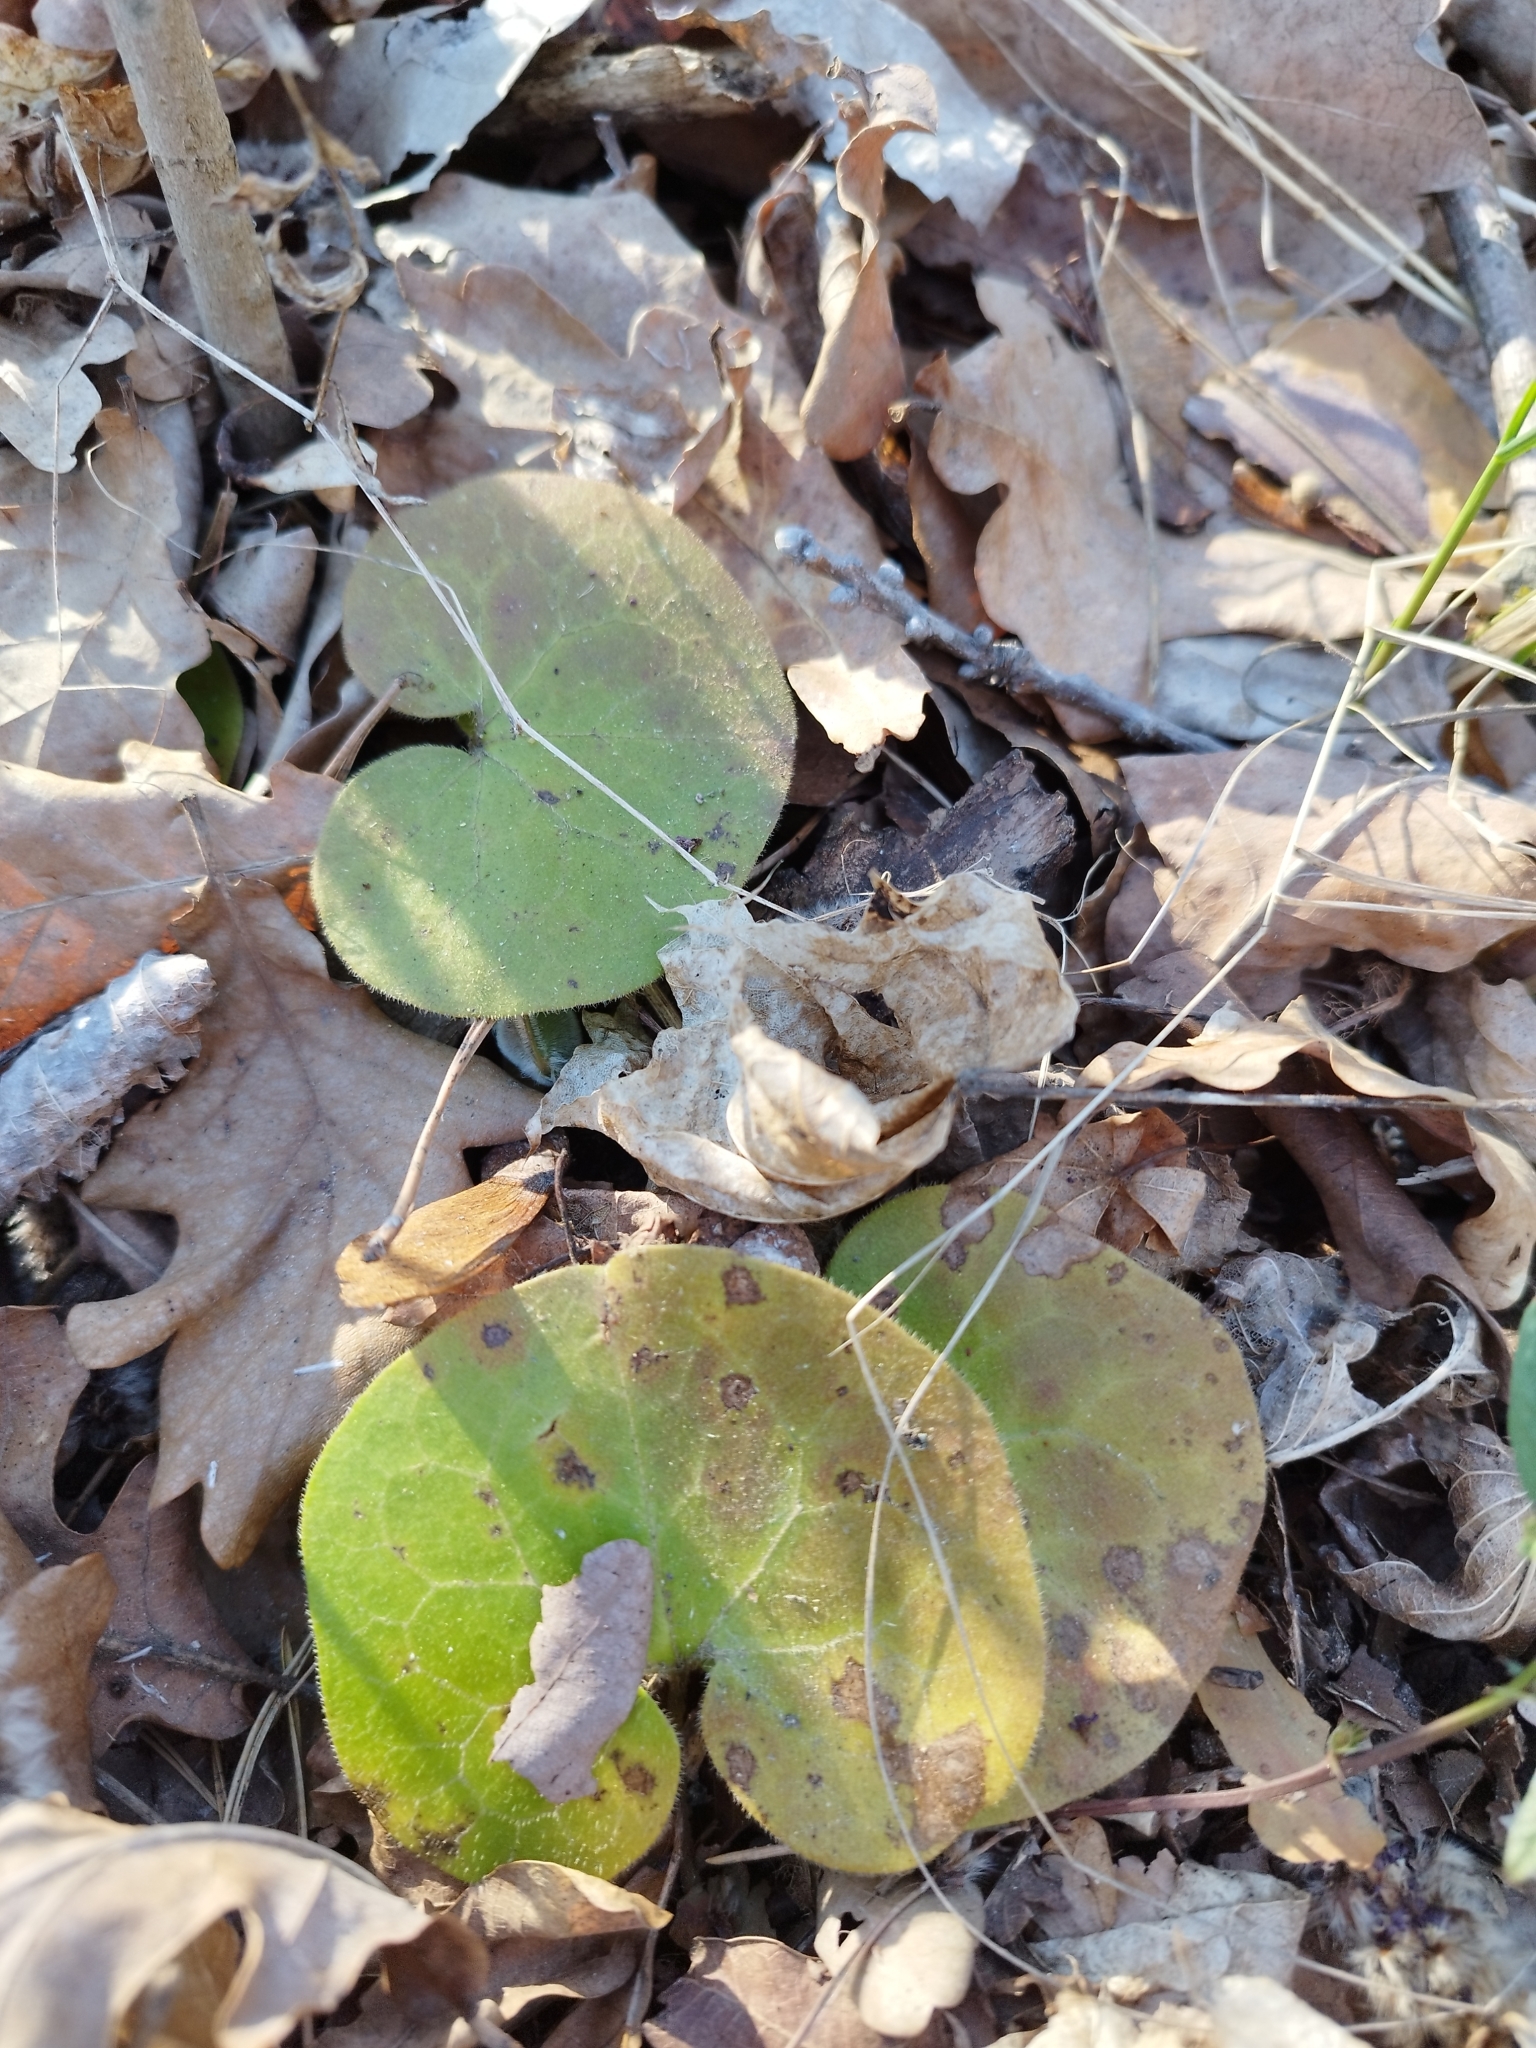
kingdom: Plantae
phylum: Tracheophyta
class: Magnoliopsida
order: Piperales
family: Aristolochiaceae
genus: Asarum
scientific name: Asarum europaeum
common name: Asarabacca
